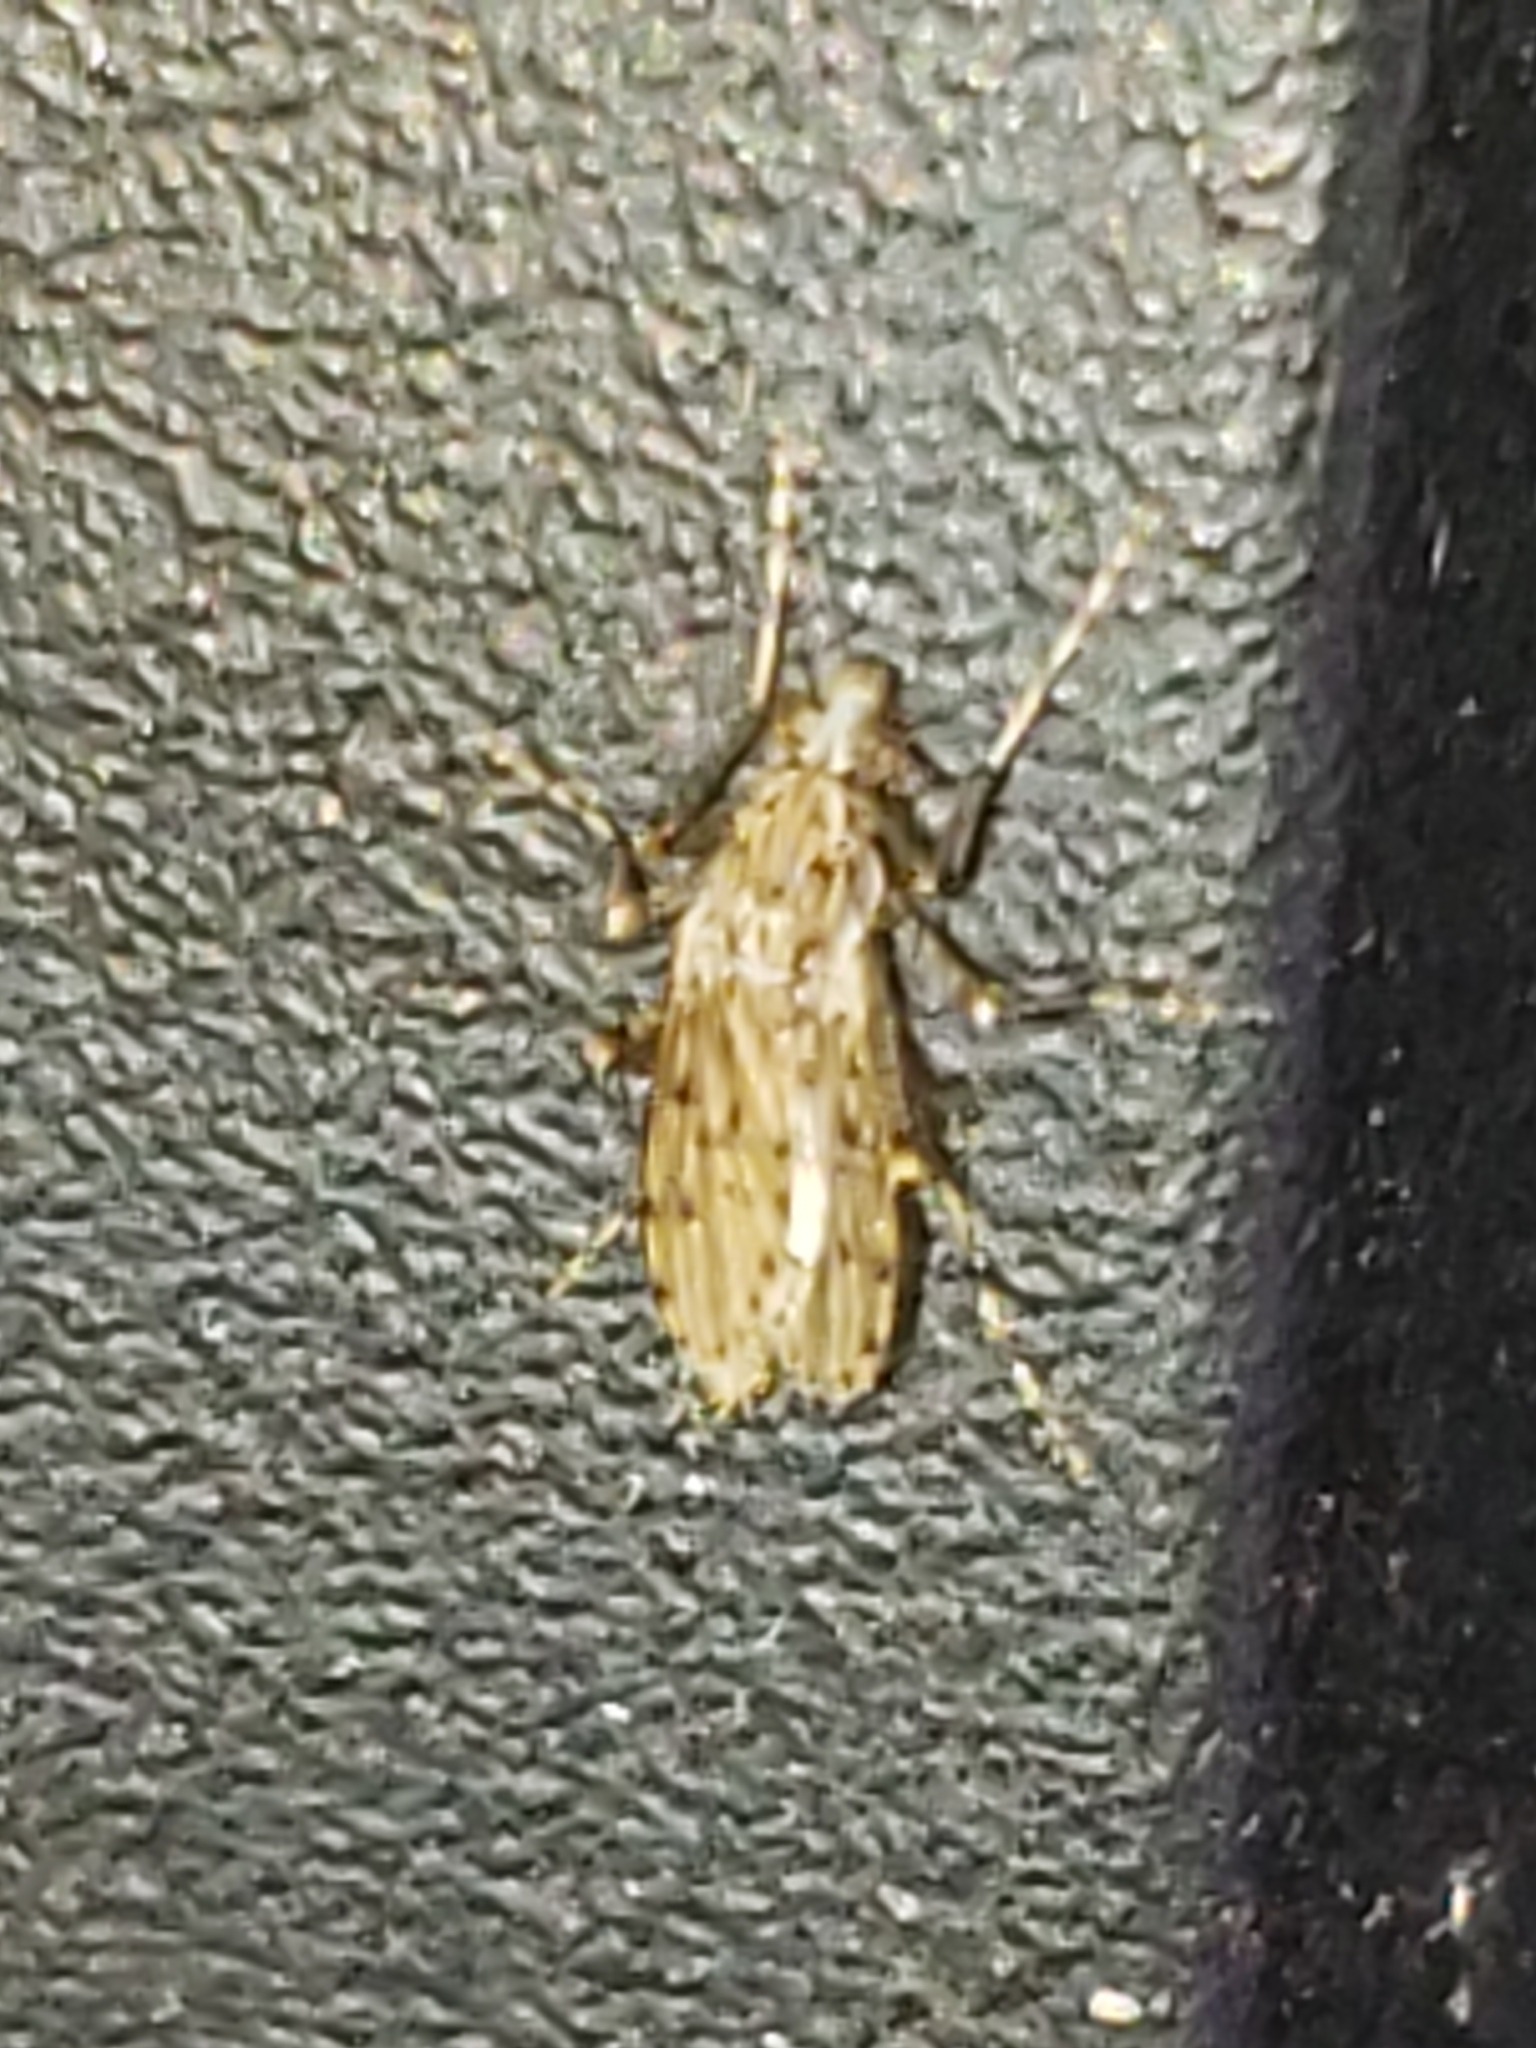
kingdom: Animalia
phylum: Arthropoda
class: Insecta
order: Diptera
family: Chaoboridae
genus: Chaoborus
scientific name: Chaoborus punctipennis
